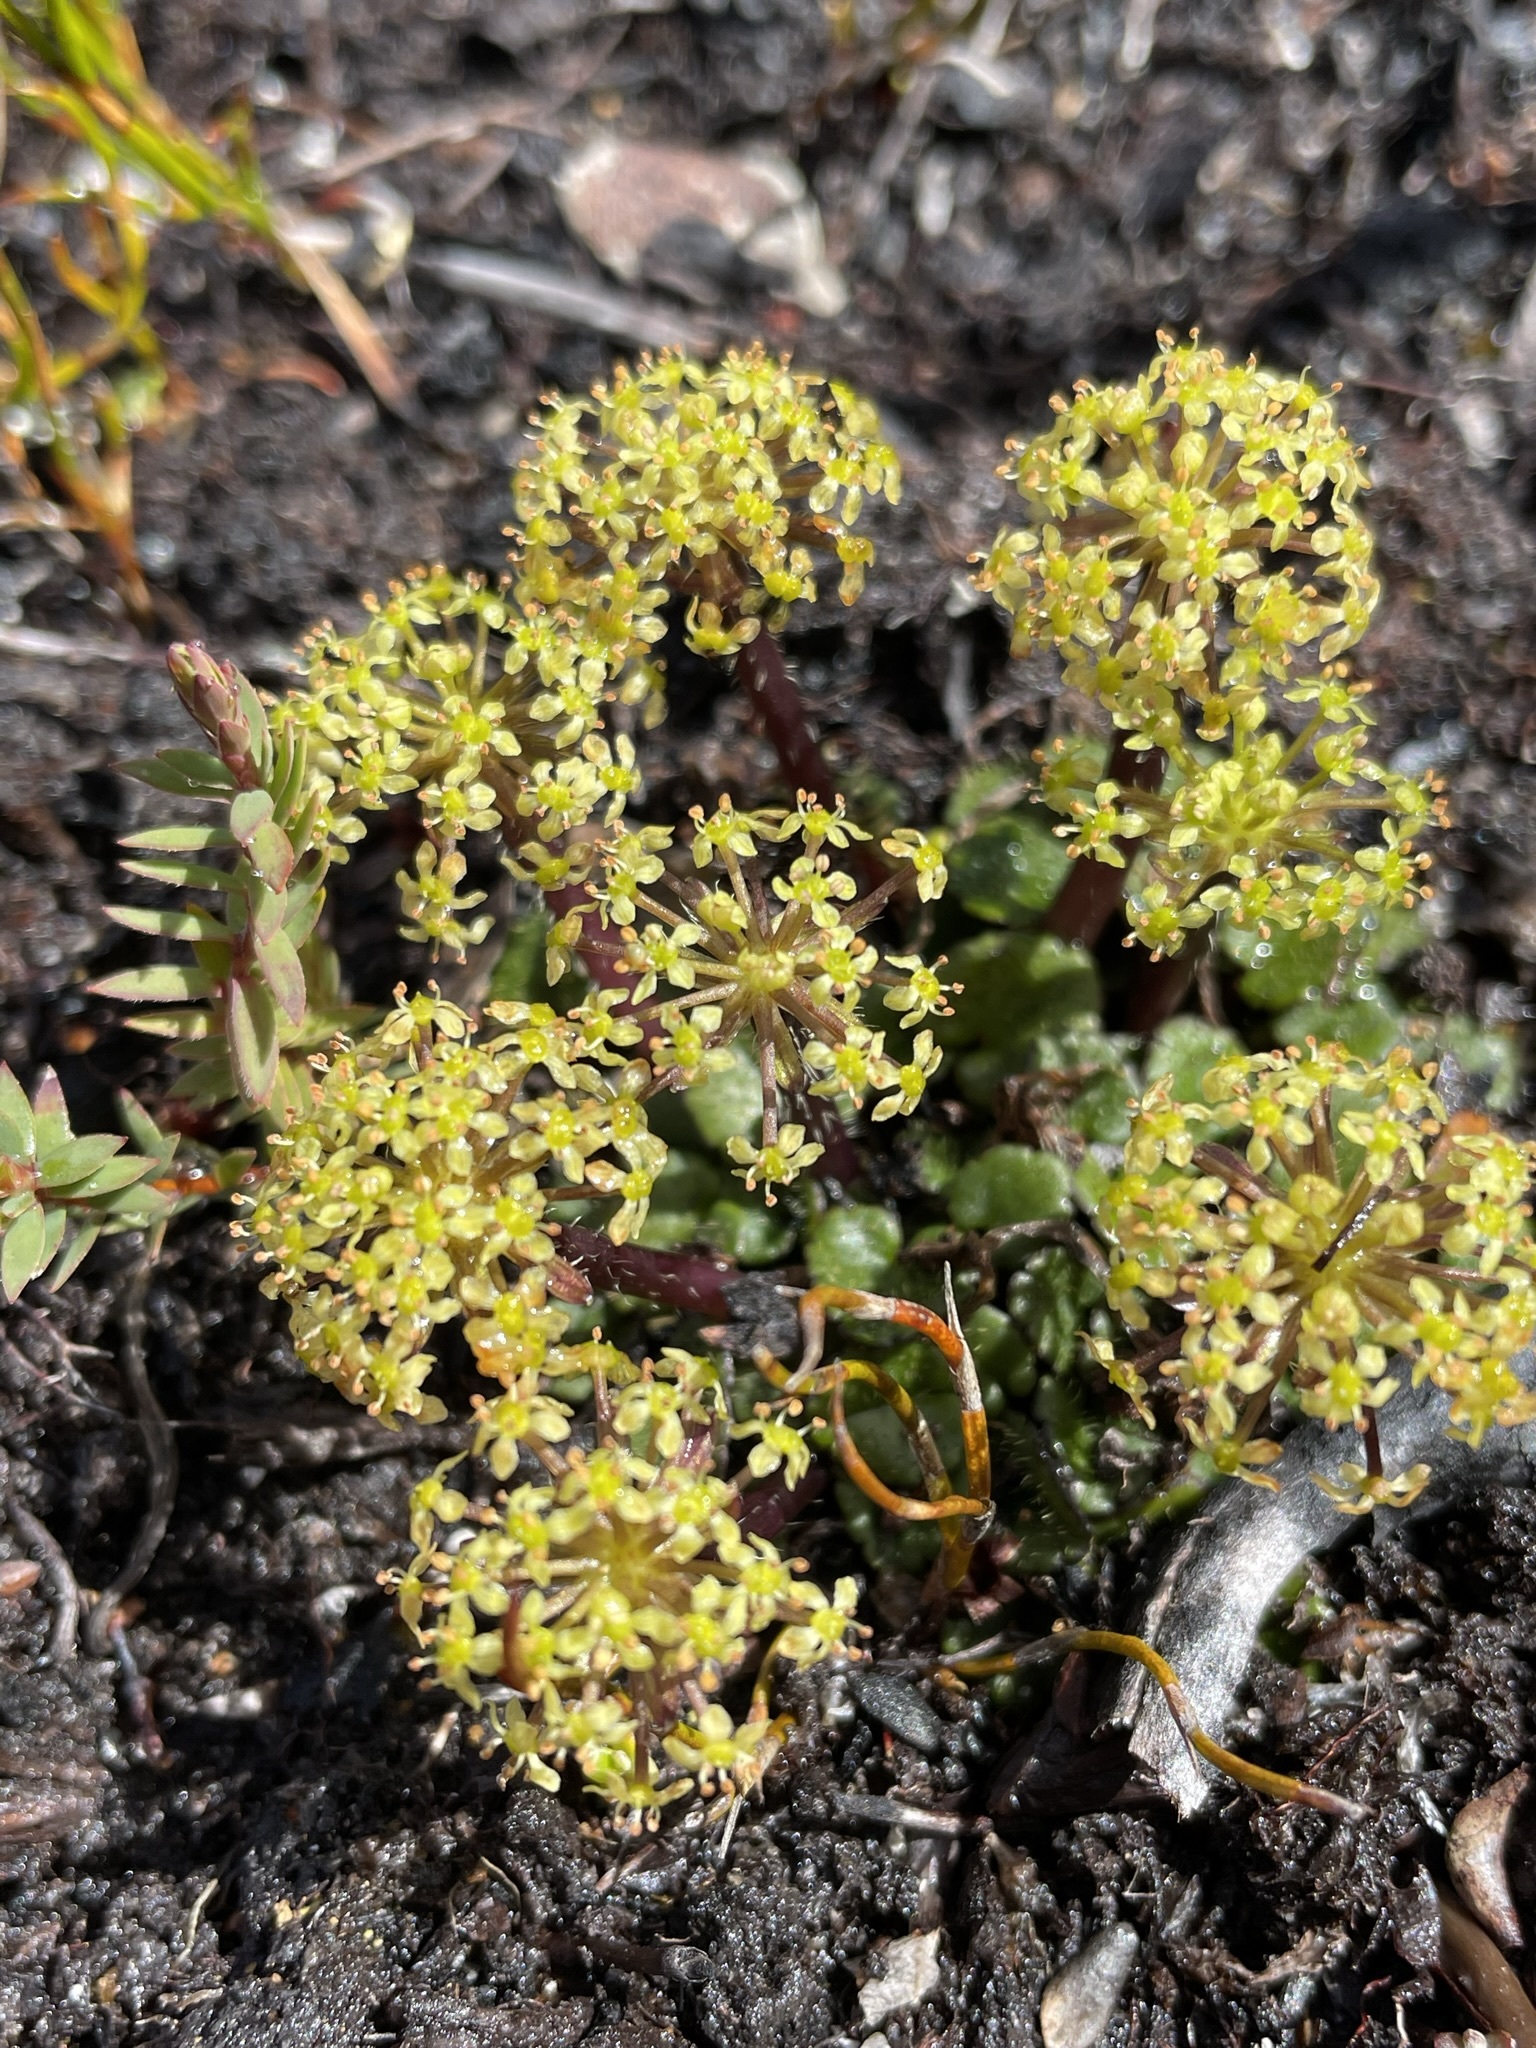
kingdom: Plantae
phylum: Tracheophyta
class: Magnoliopsida
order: Apiales
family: Apiaceae
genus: Diplaspis
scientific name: Diplaspis cordifolia
